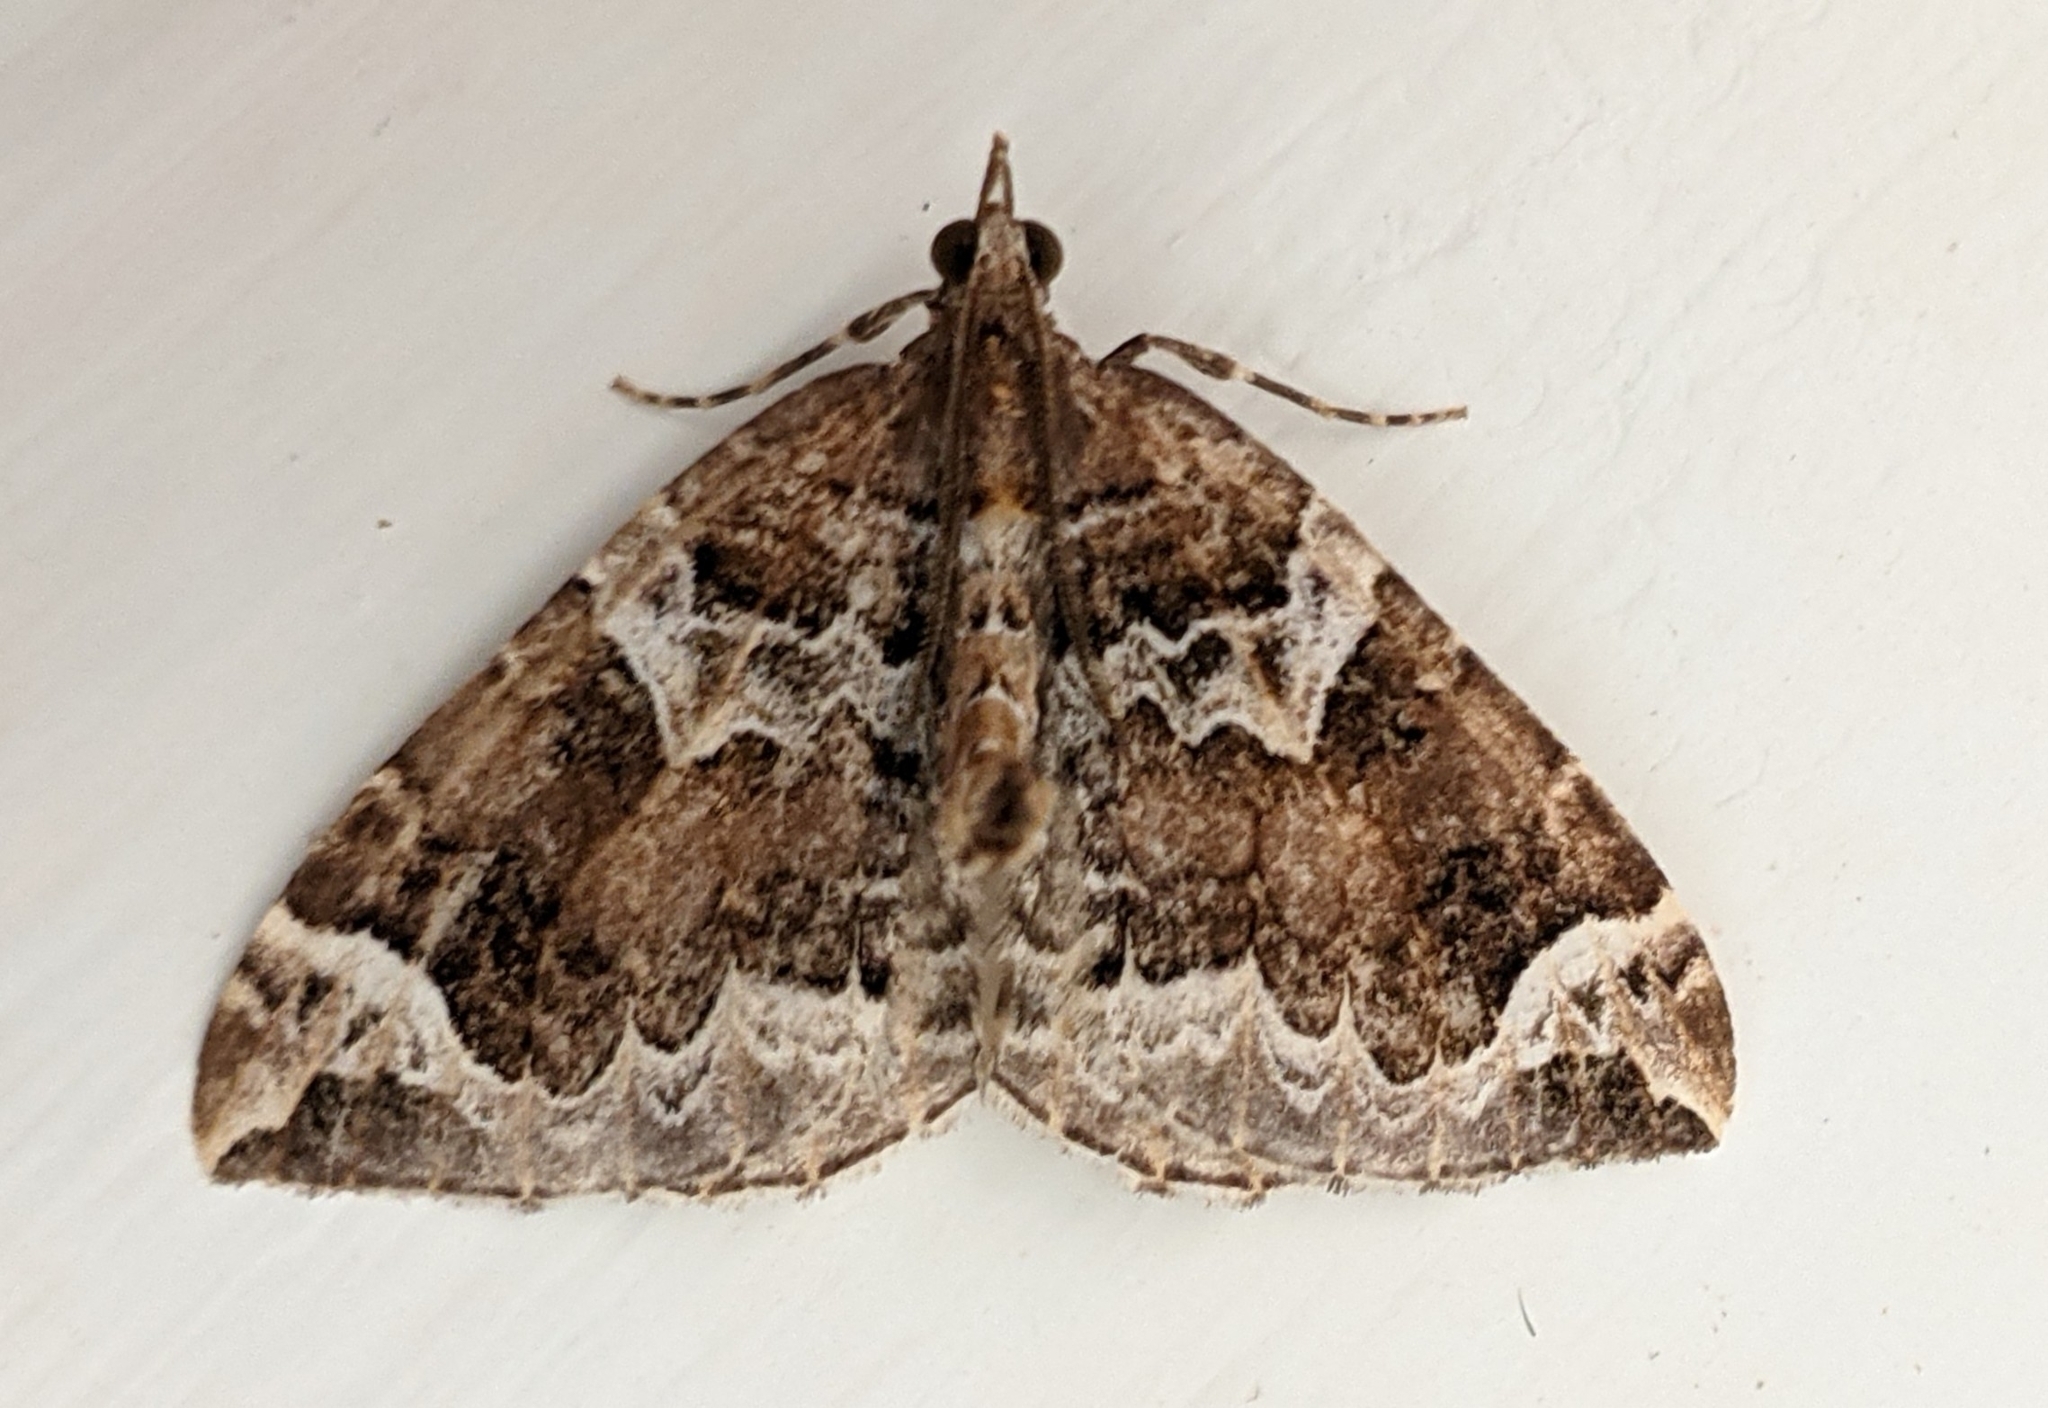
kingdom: Animalia
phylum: Arthropoda
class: Insecta
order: Lepidoptera
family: Geometridae
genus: Eulithis
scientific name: Eulithis xylina
